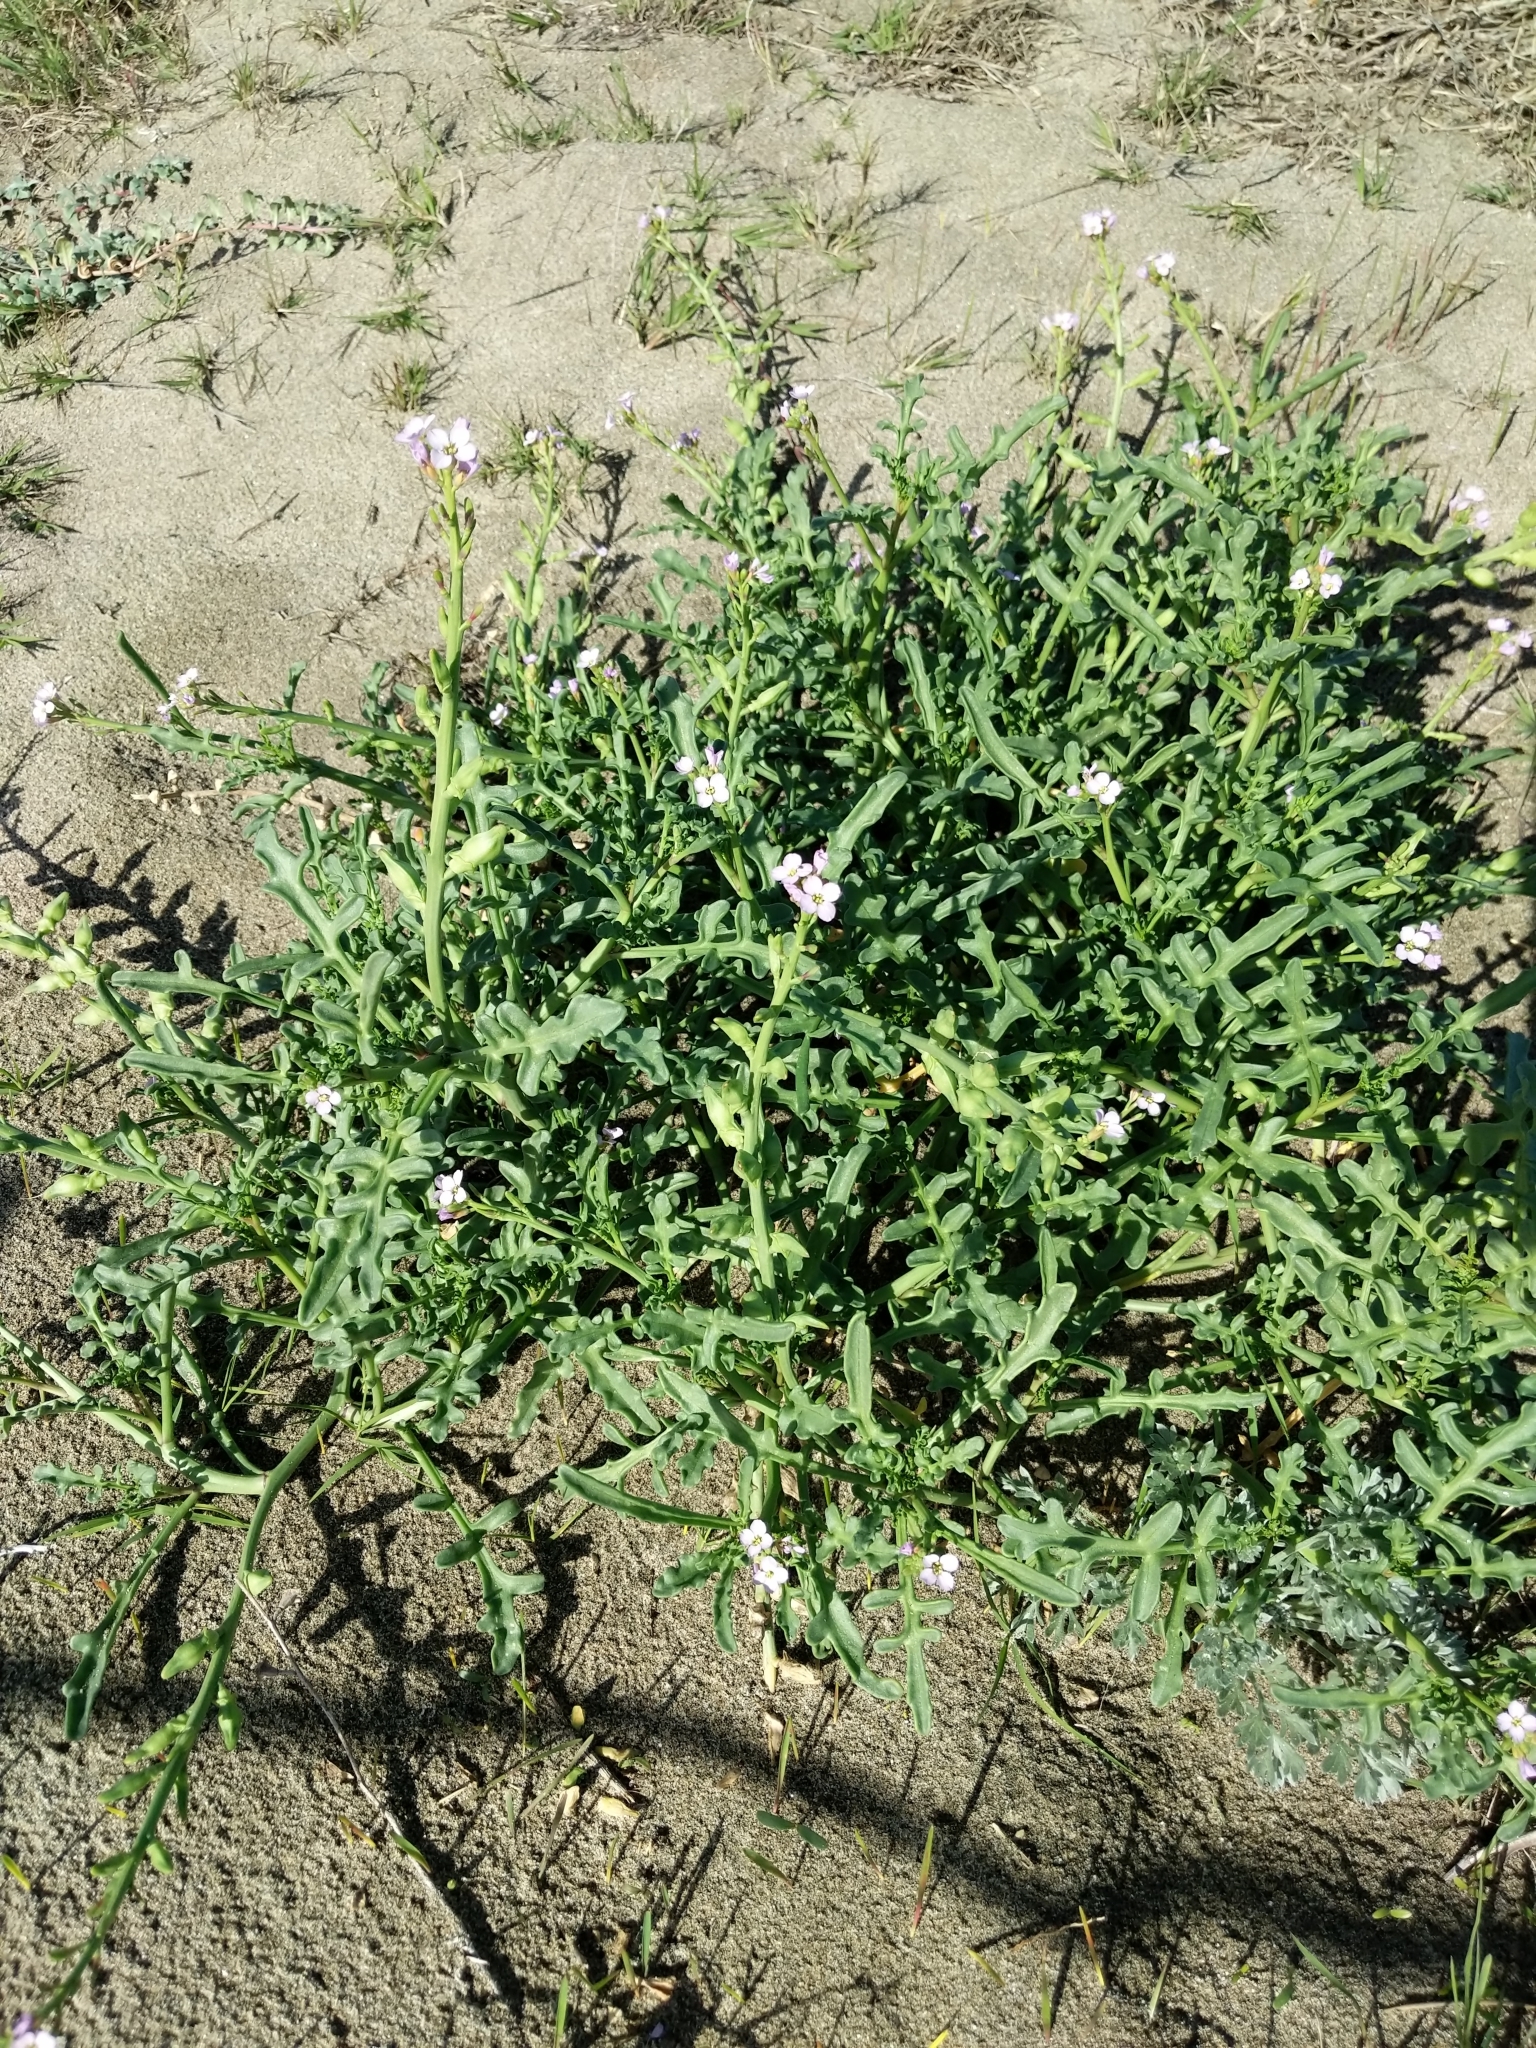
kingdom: Plantae
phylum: Tracheophyta
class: Magnoliopsida
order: Brassicales
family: Brassicaceae
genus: Cakile
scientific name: Cakile maritima
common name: Sea rocket
